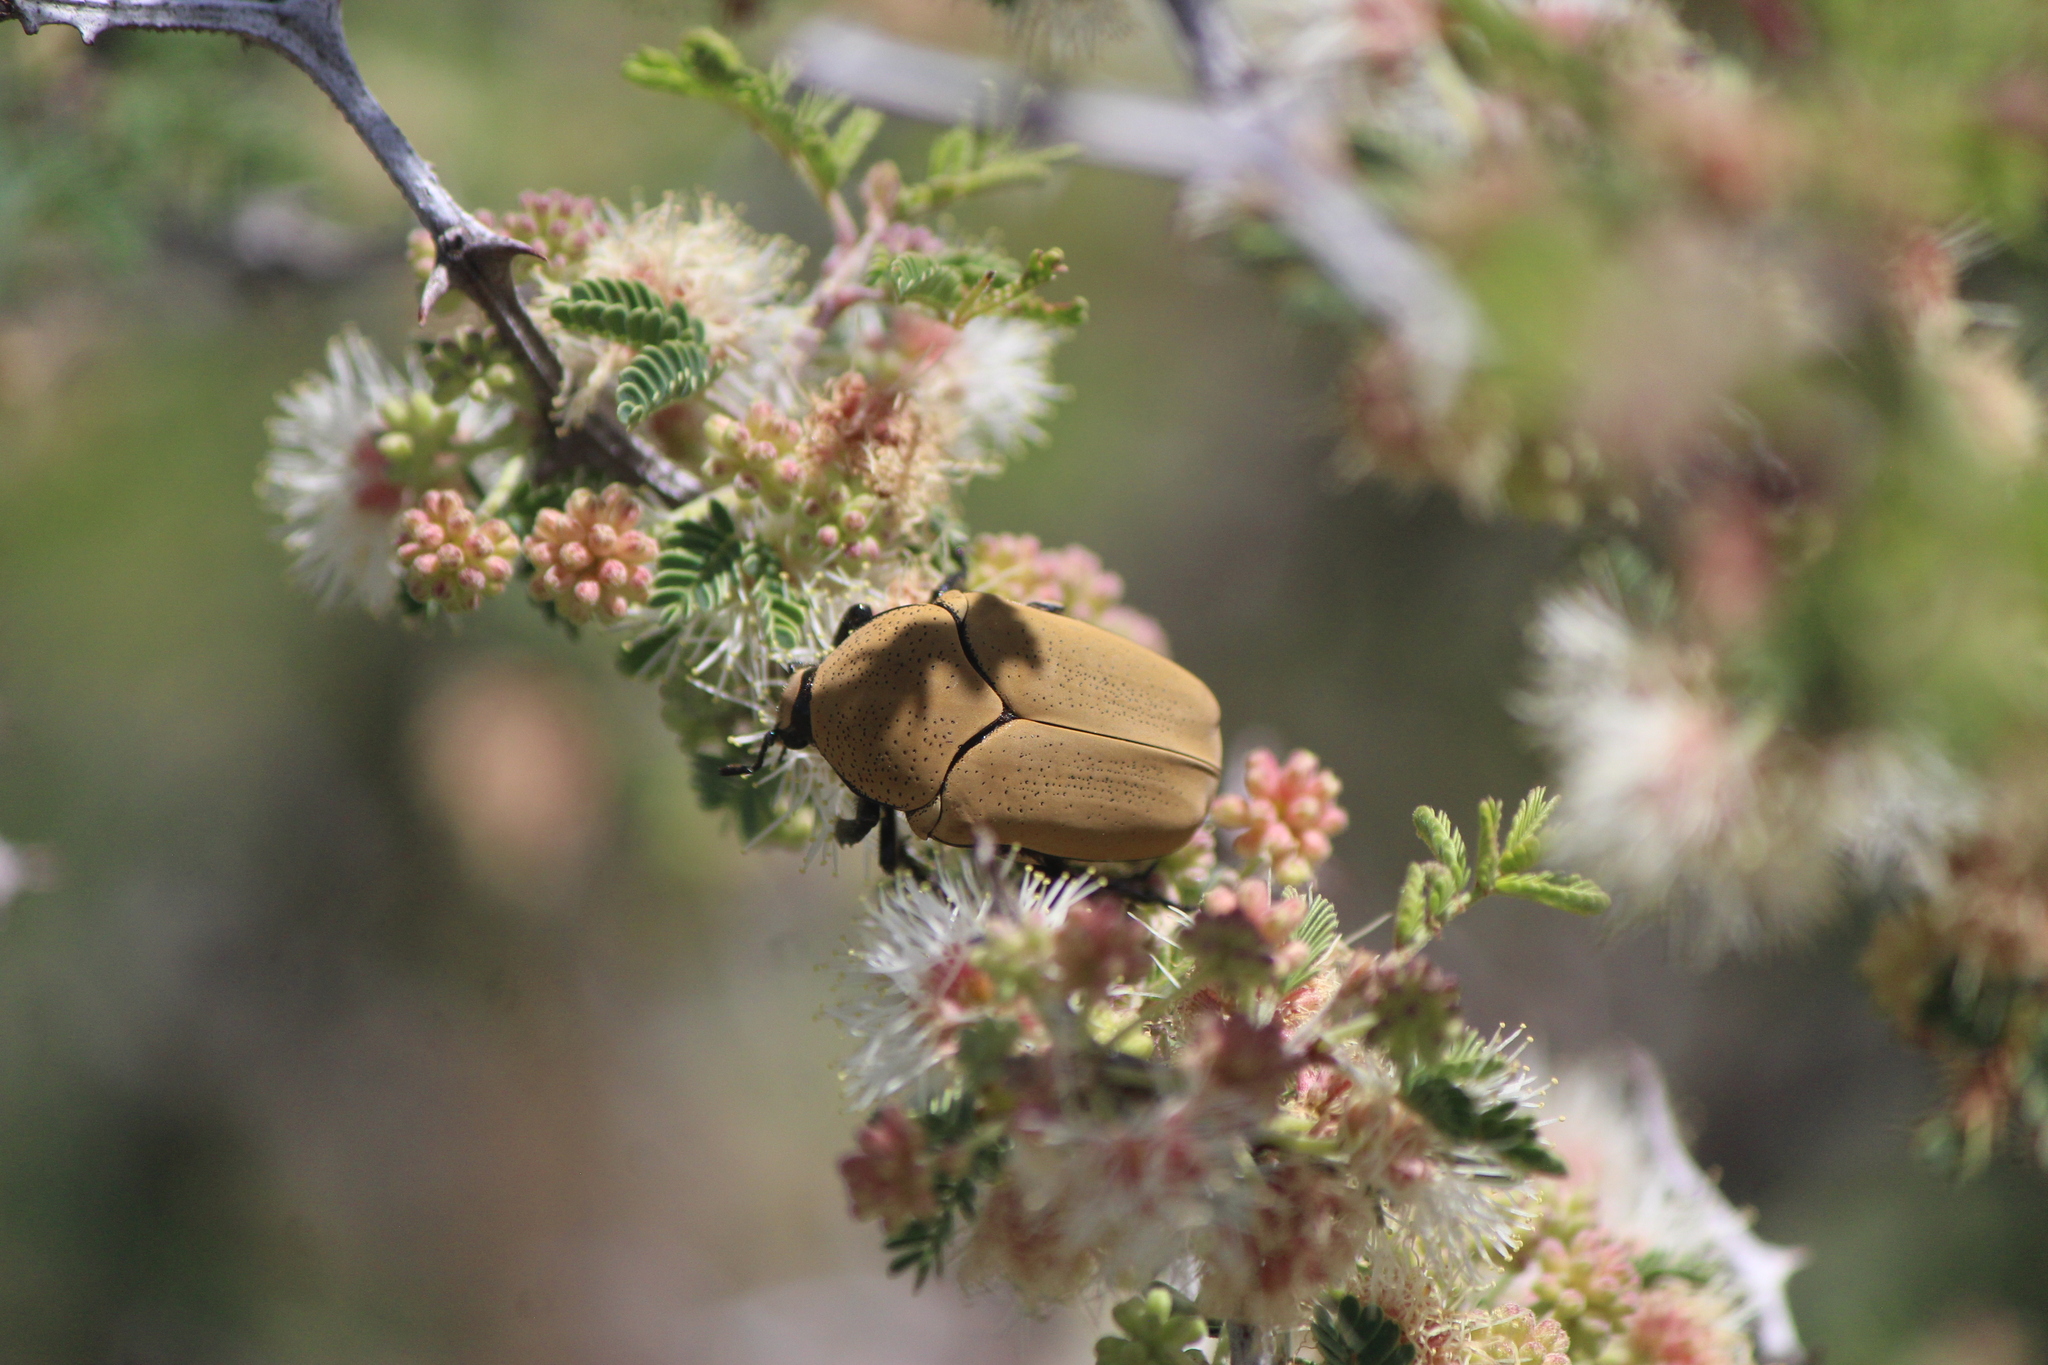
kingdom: Animalia
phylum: Arthropoda
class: Insecta
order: Coleoptera
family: Scarabaeidae
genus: Hologymnetis
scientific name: Hologymnetis cinerea
